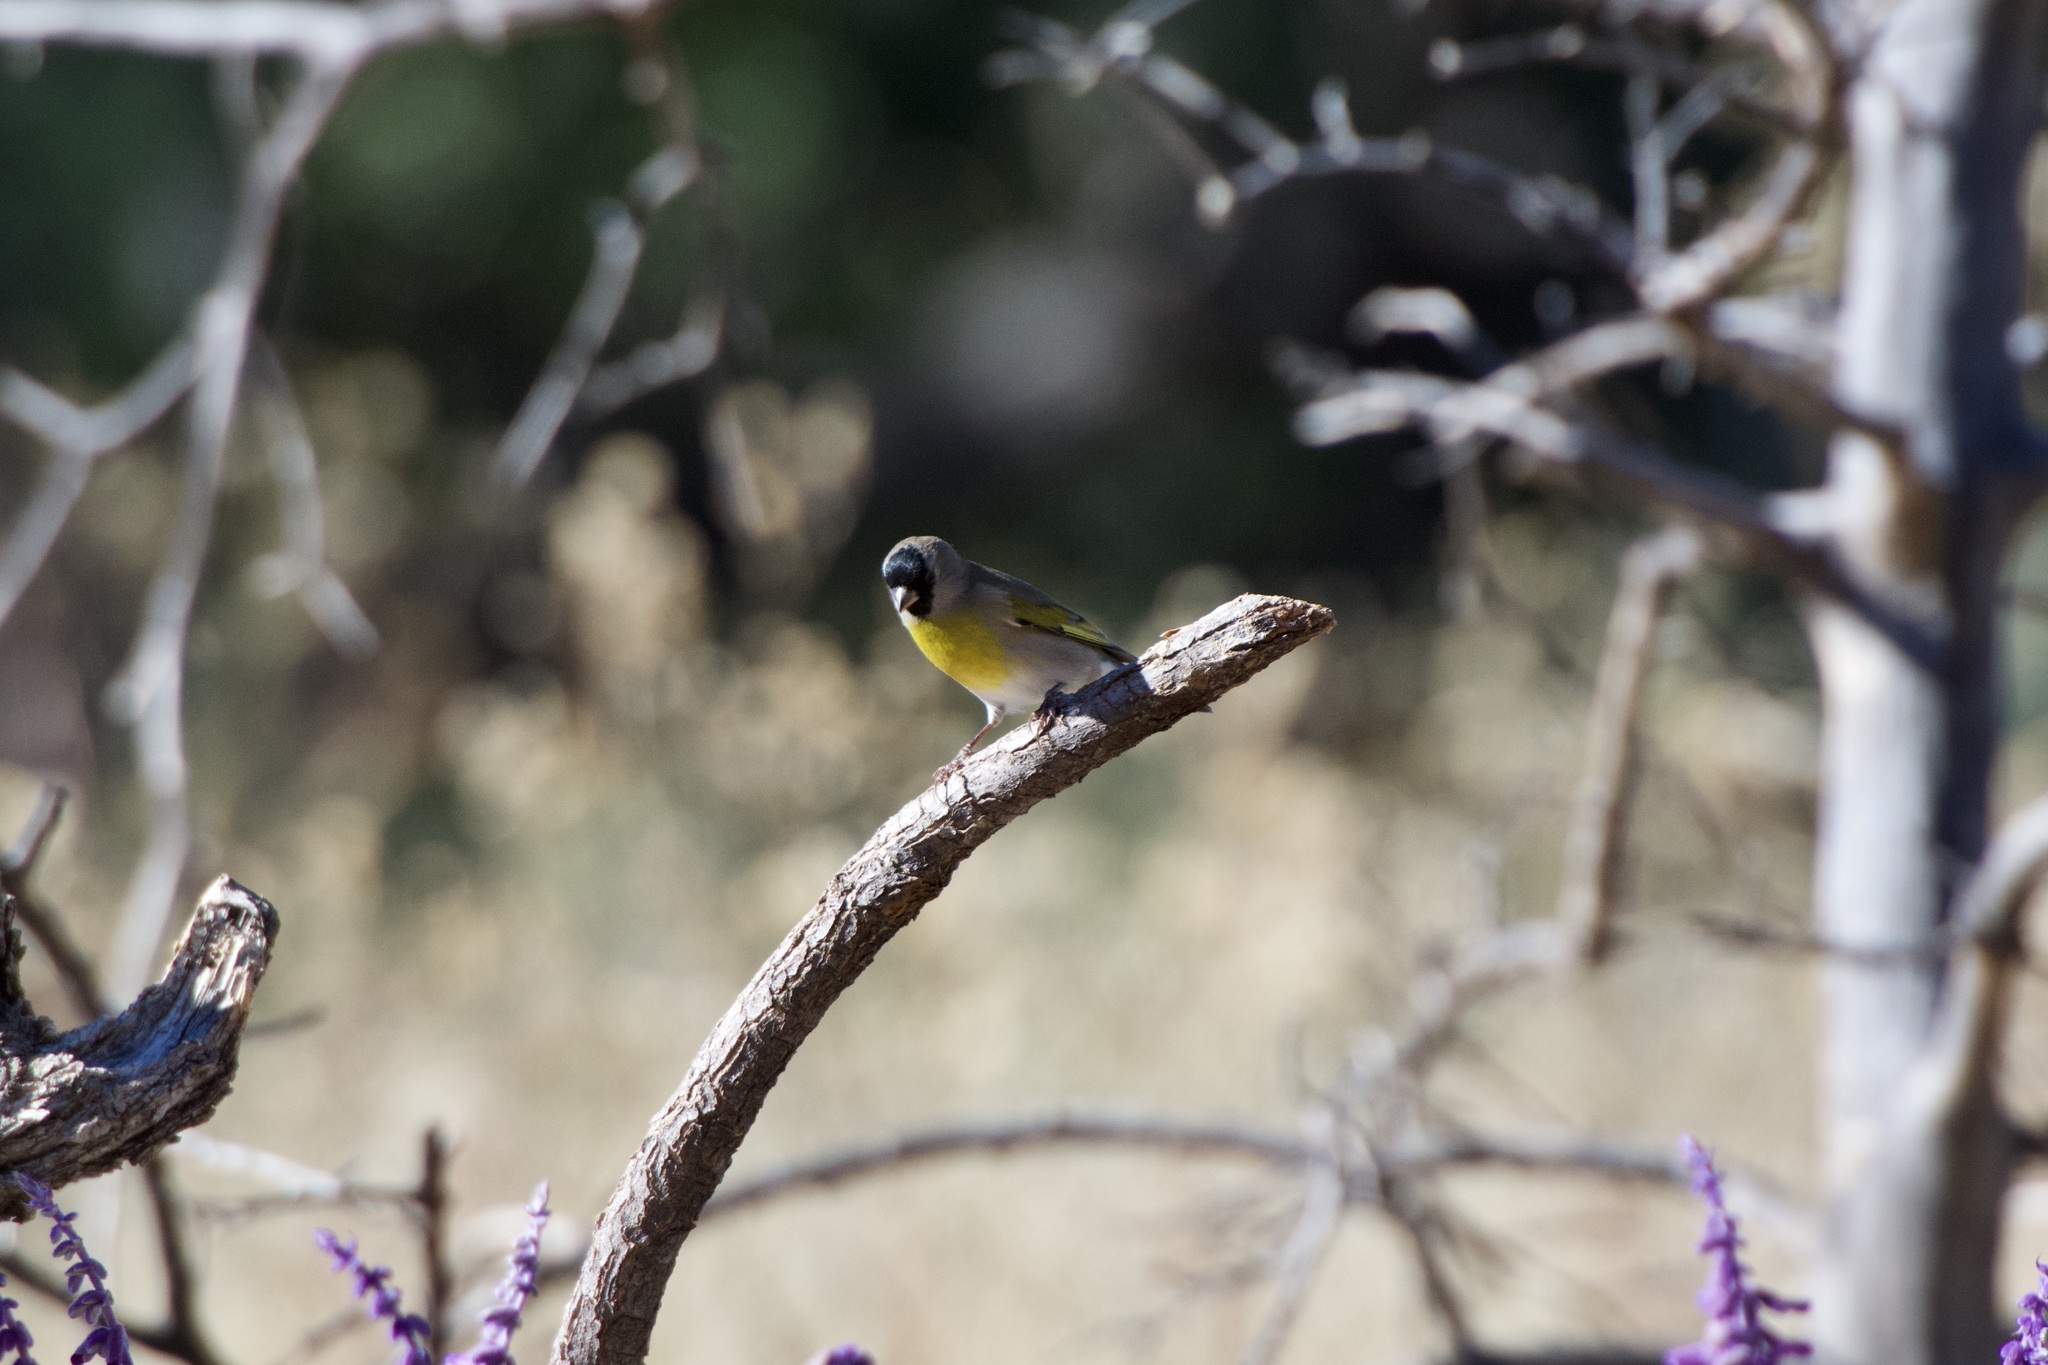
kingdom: Animalia
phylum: Chordata
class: Aves
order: Passeriformes
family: Fringillidae
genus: Spinus
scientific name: Spinus lawrencei
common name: Lawrence's goldfinch
